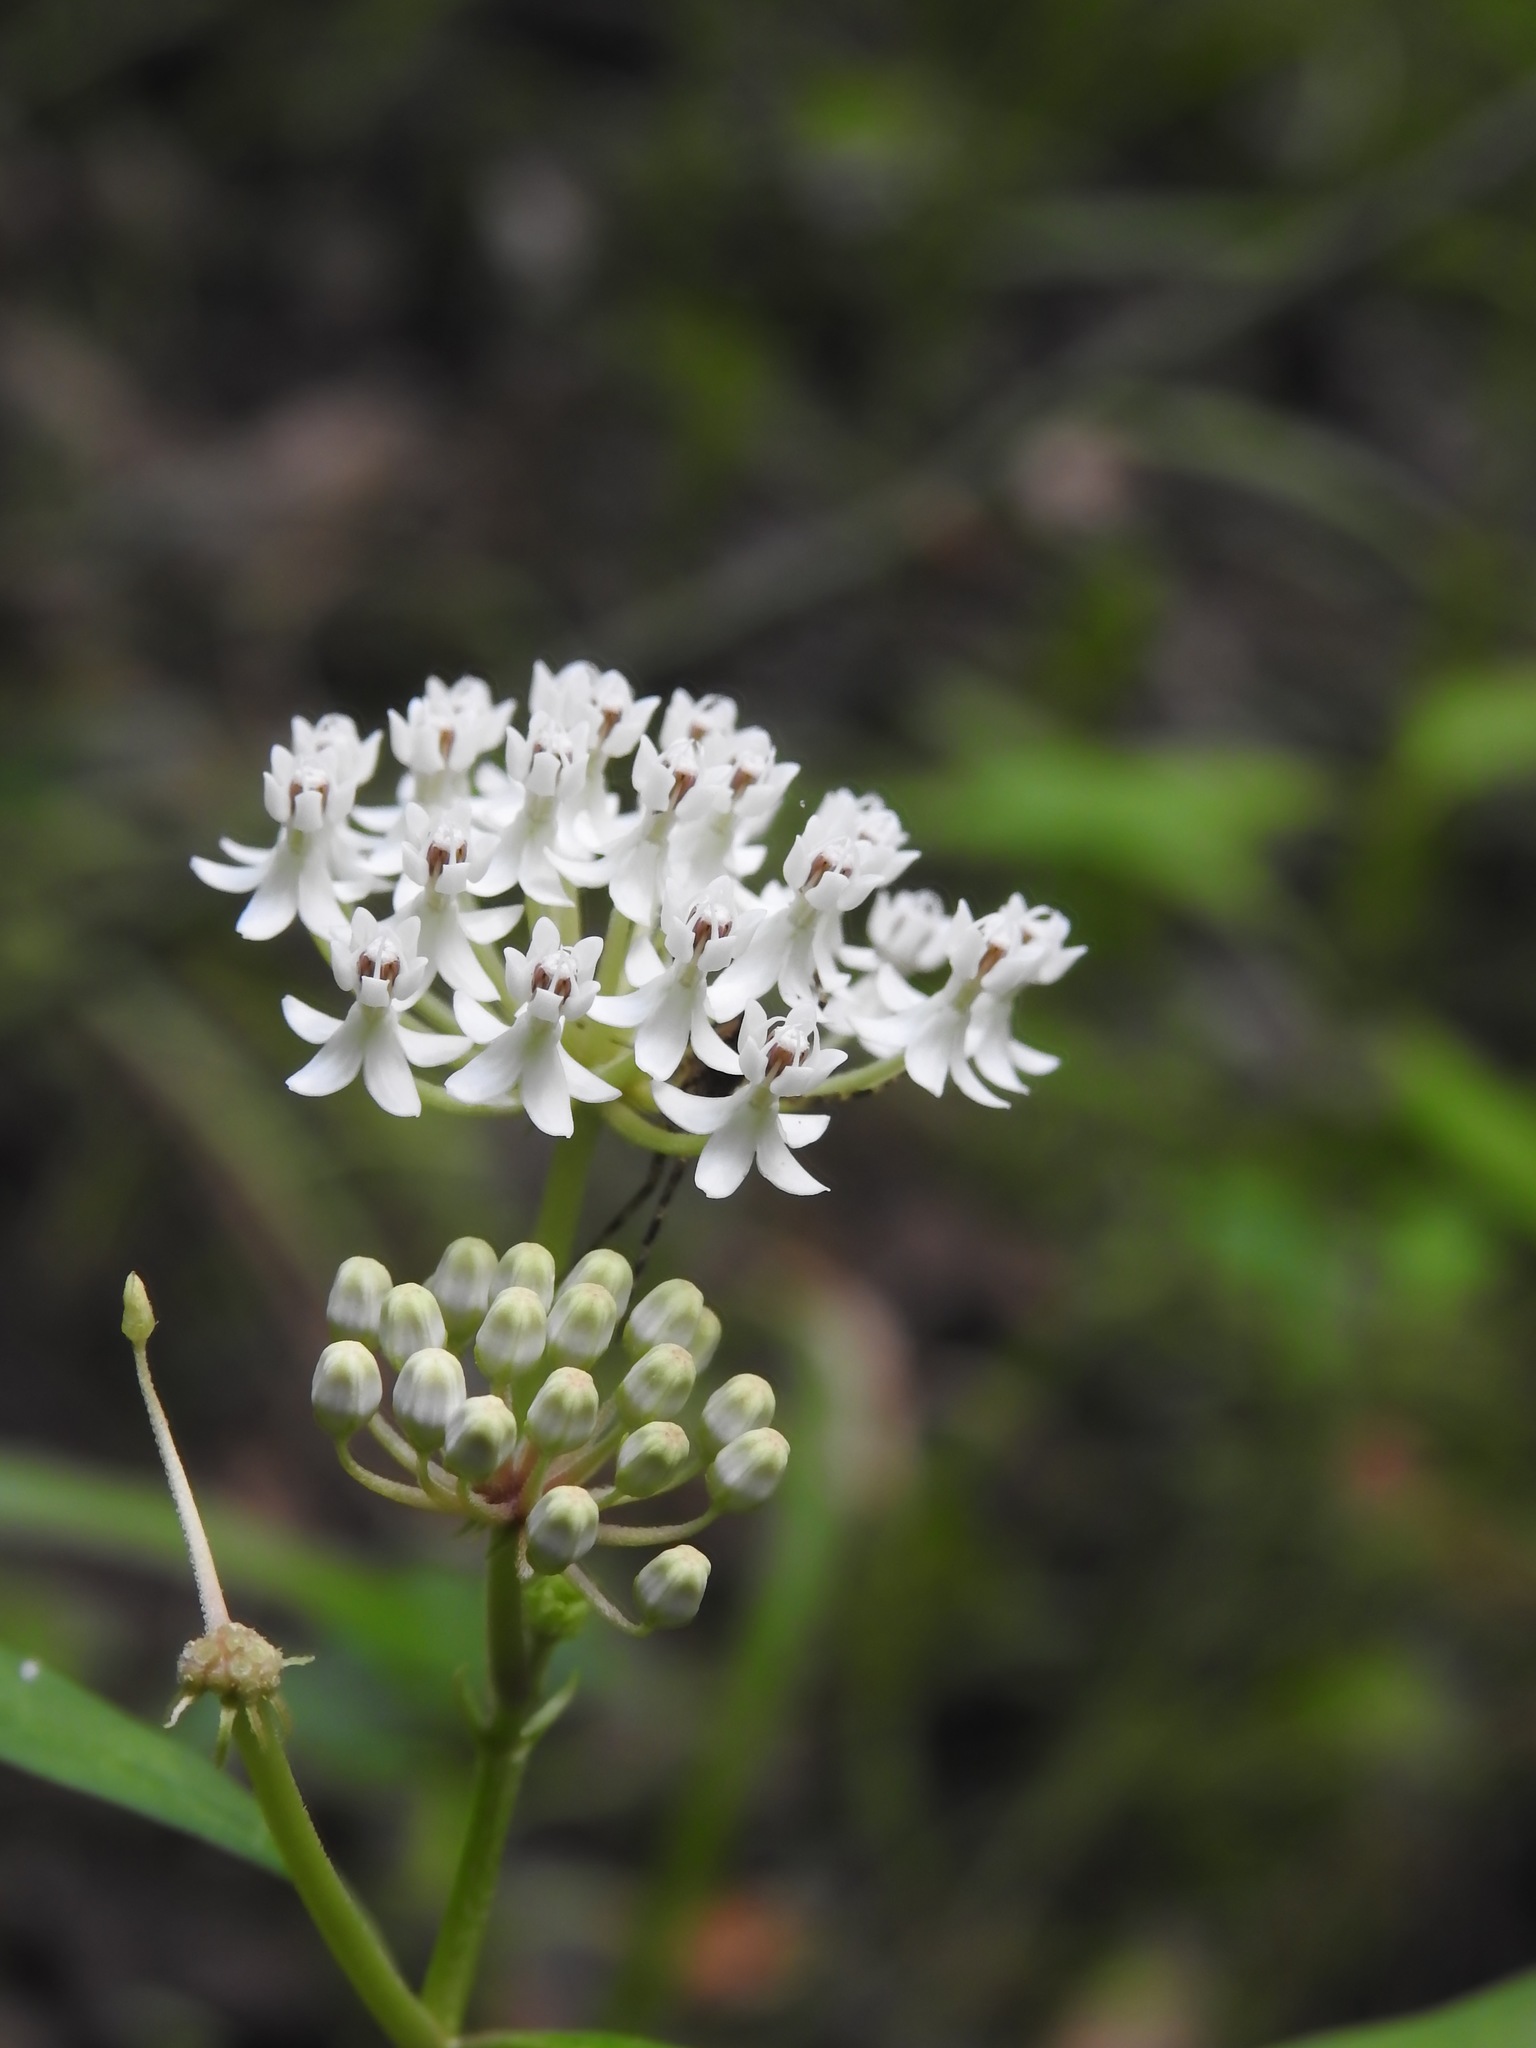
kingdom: Plantae
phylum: Tracheophyta
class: Magnoliopsida
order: Gentianales
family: Apocynaceae
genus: Asclepias
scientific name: Asclepias perennis
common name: Smooth-seed milkweed
